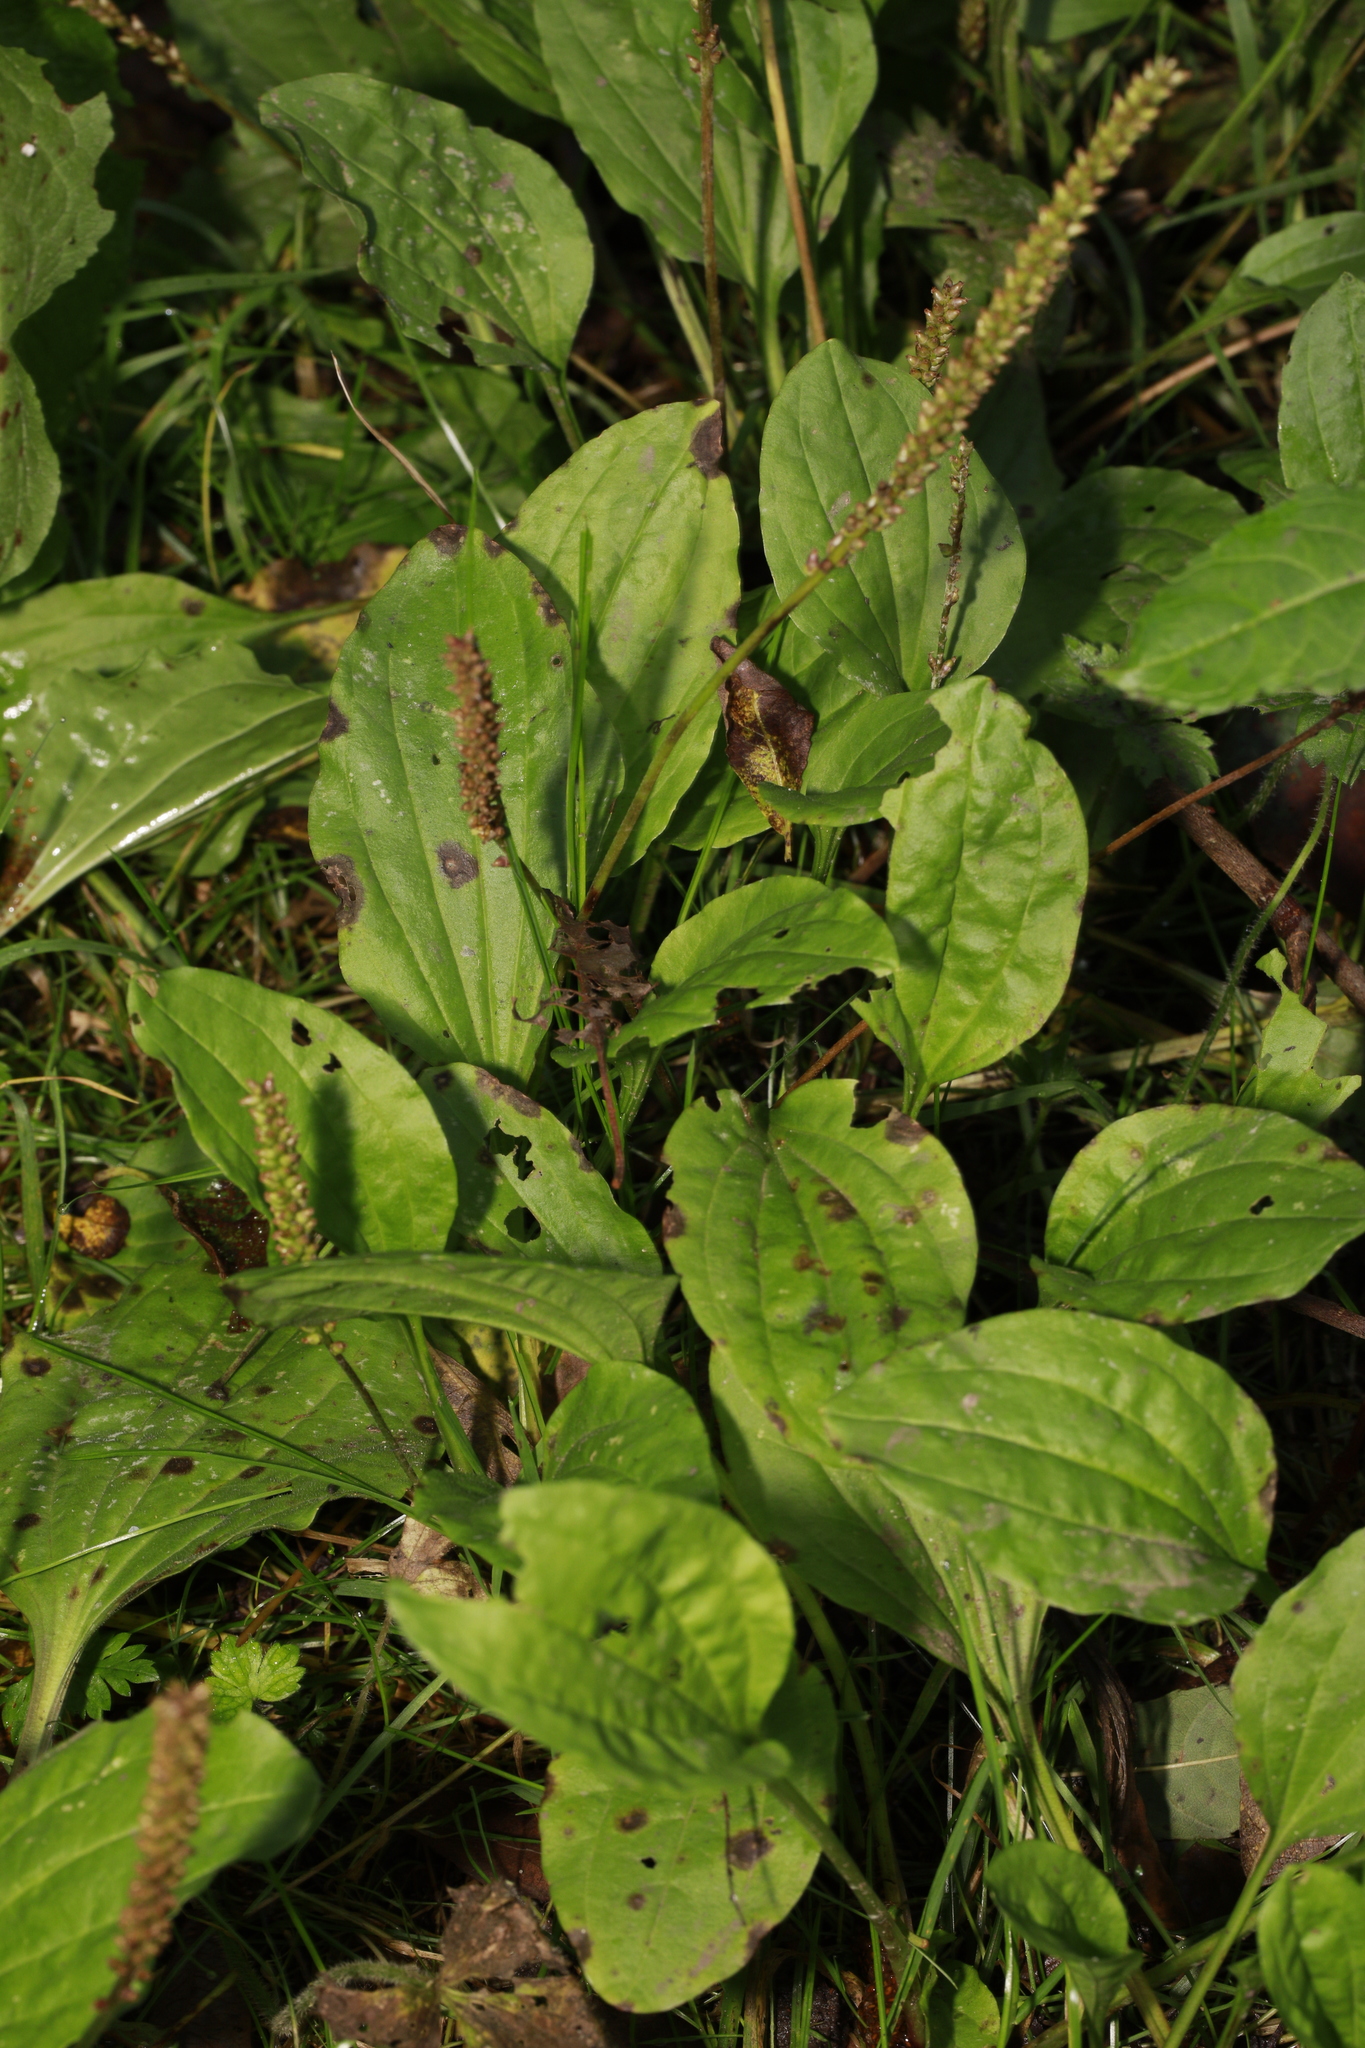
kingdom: Plantae
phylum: Tracheophyta
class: Magnoliopsida
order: Lamiales
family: Plantaginaceae
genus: Plantago
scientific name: Plantago major
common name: Common plantain
